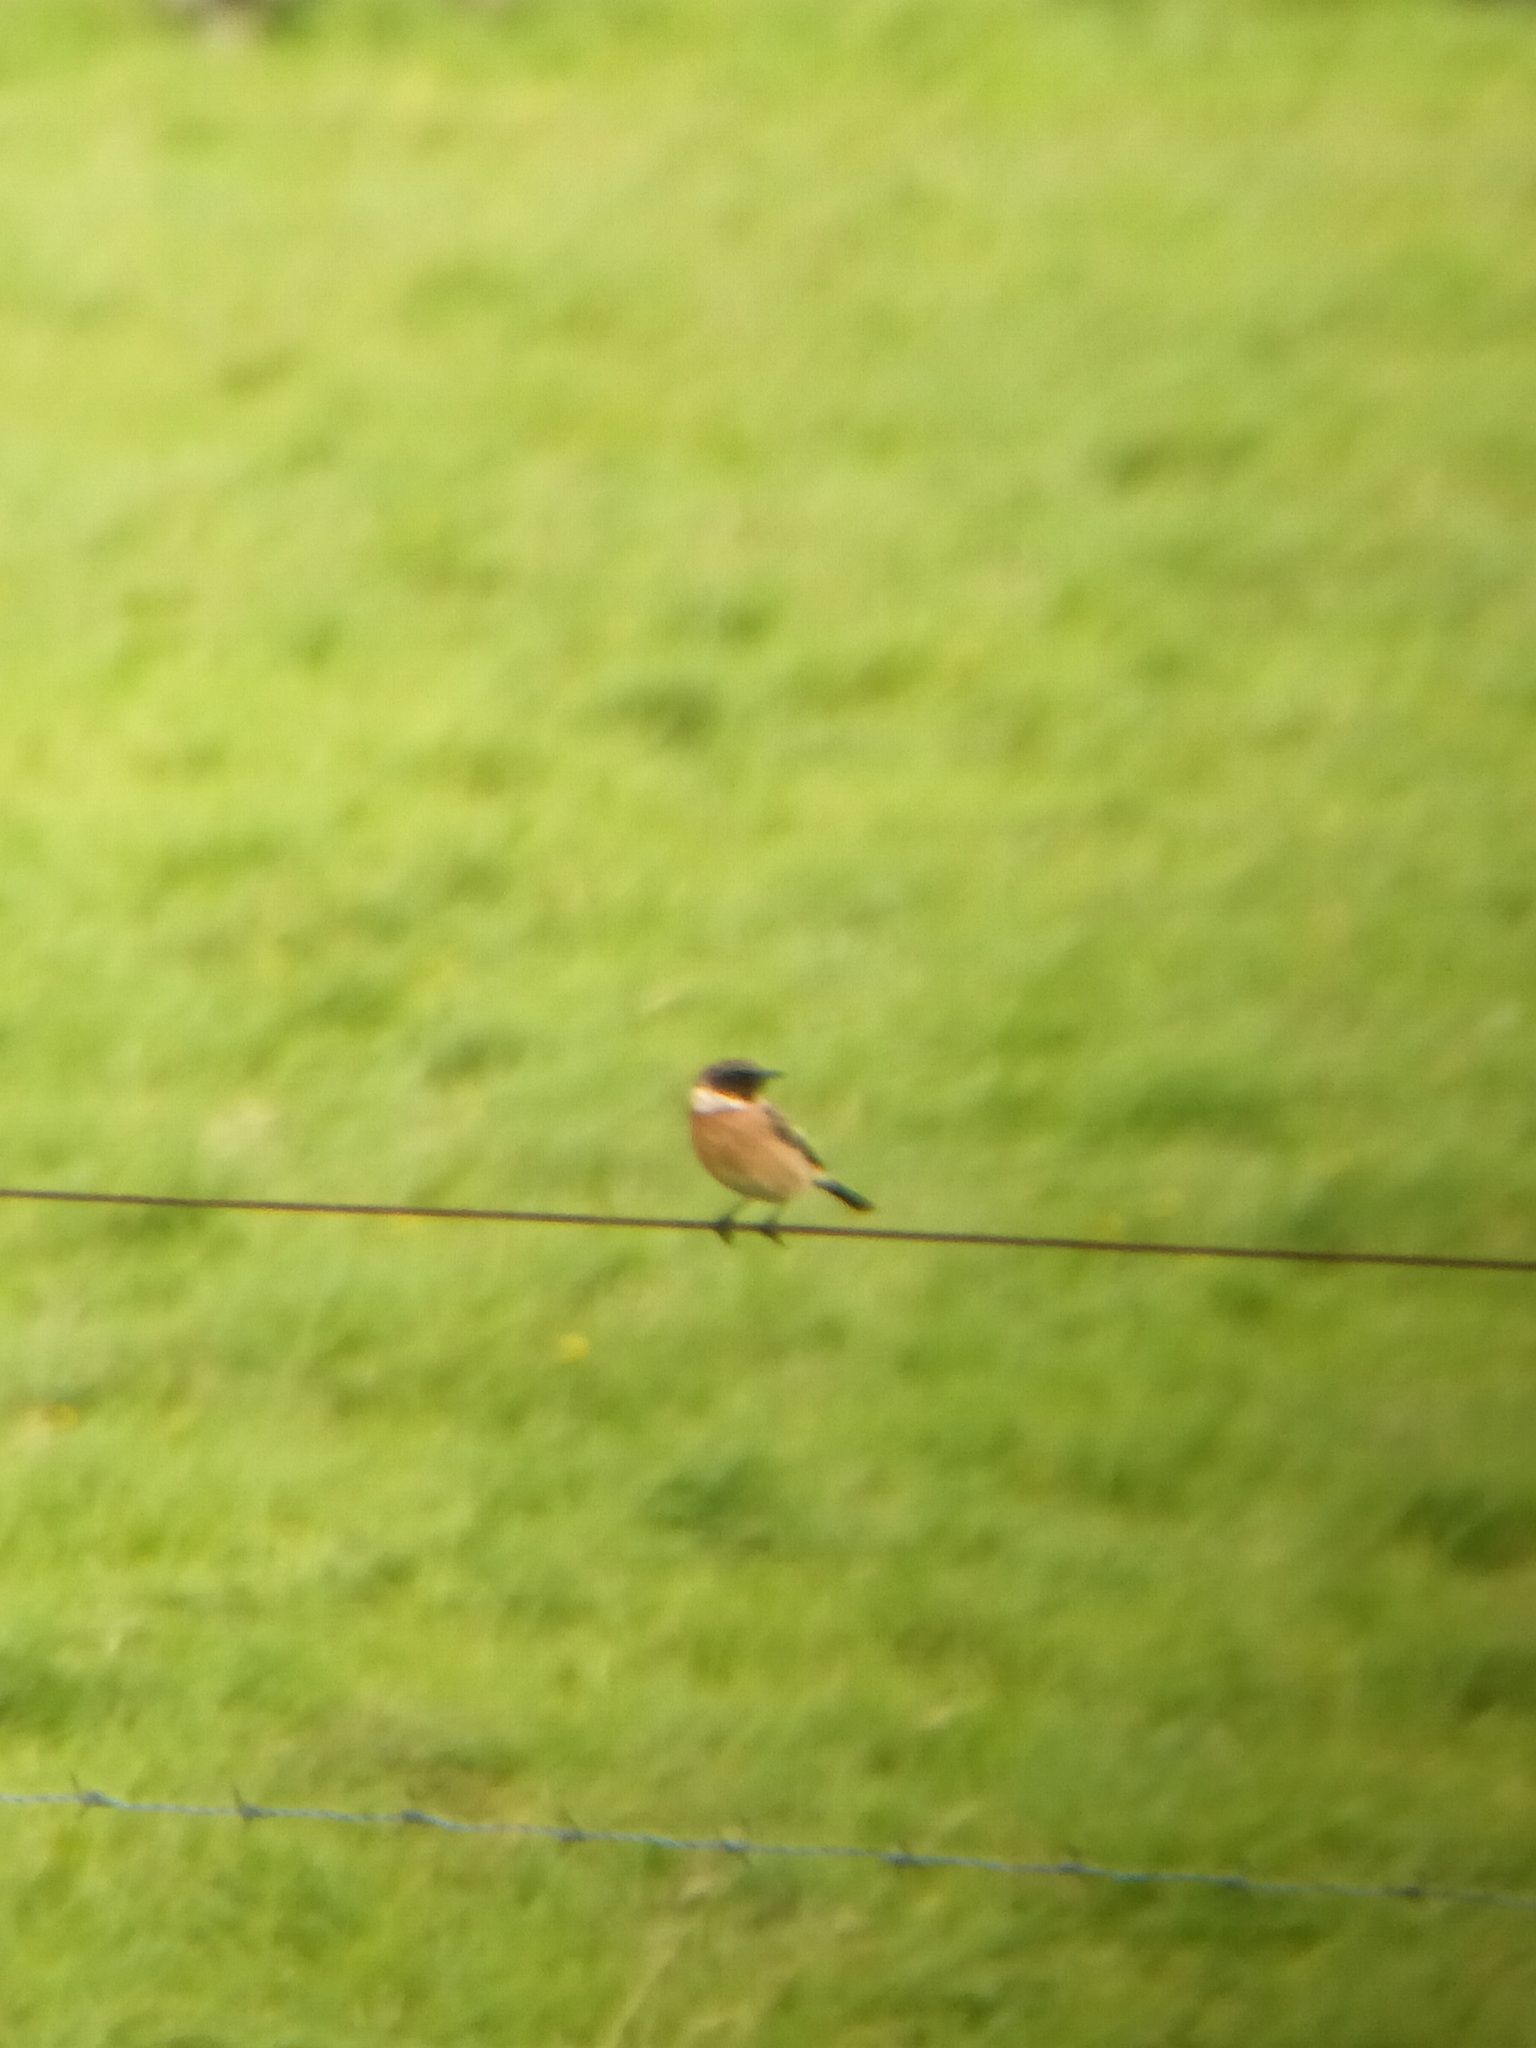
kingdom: Animalia
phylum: Chordata
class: Aves
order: Passeriformes
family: Muscicapidae
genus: Saxicola
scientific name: Saxicola rubicola
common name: European stonechat
